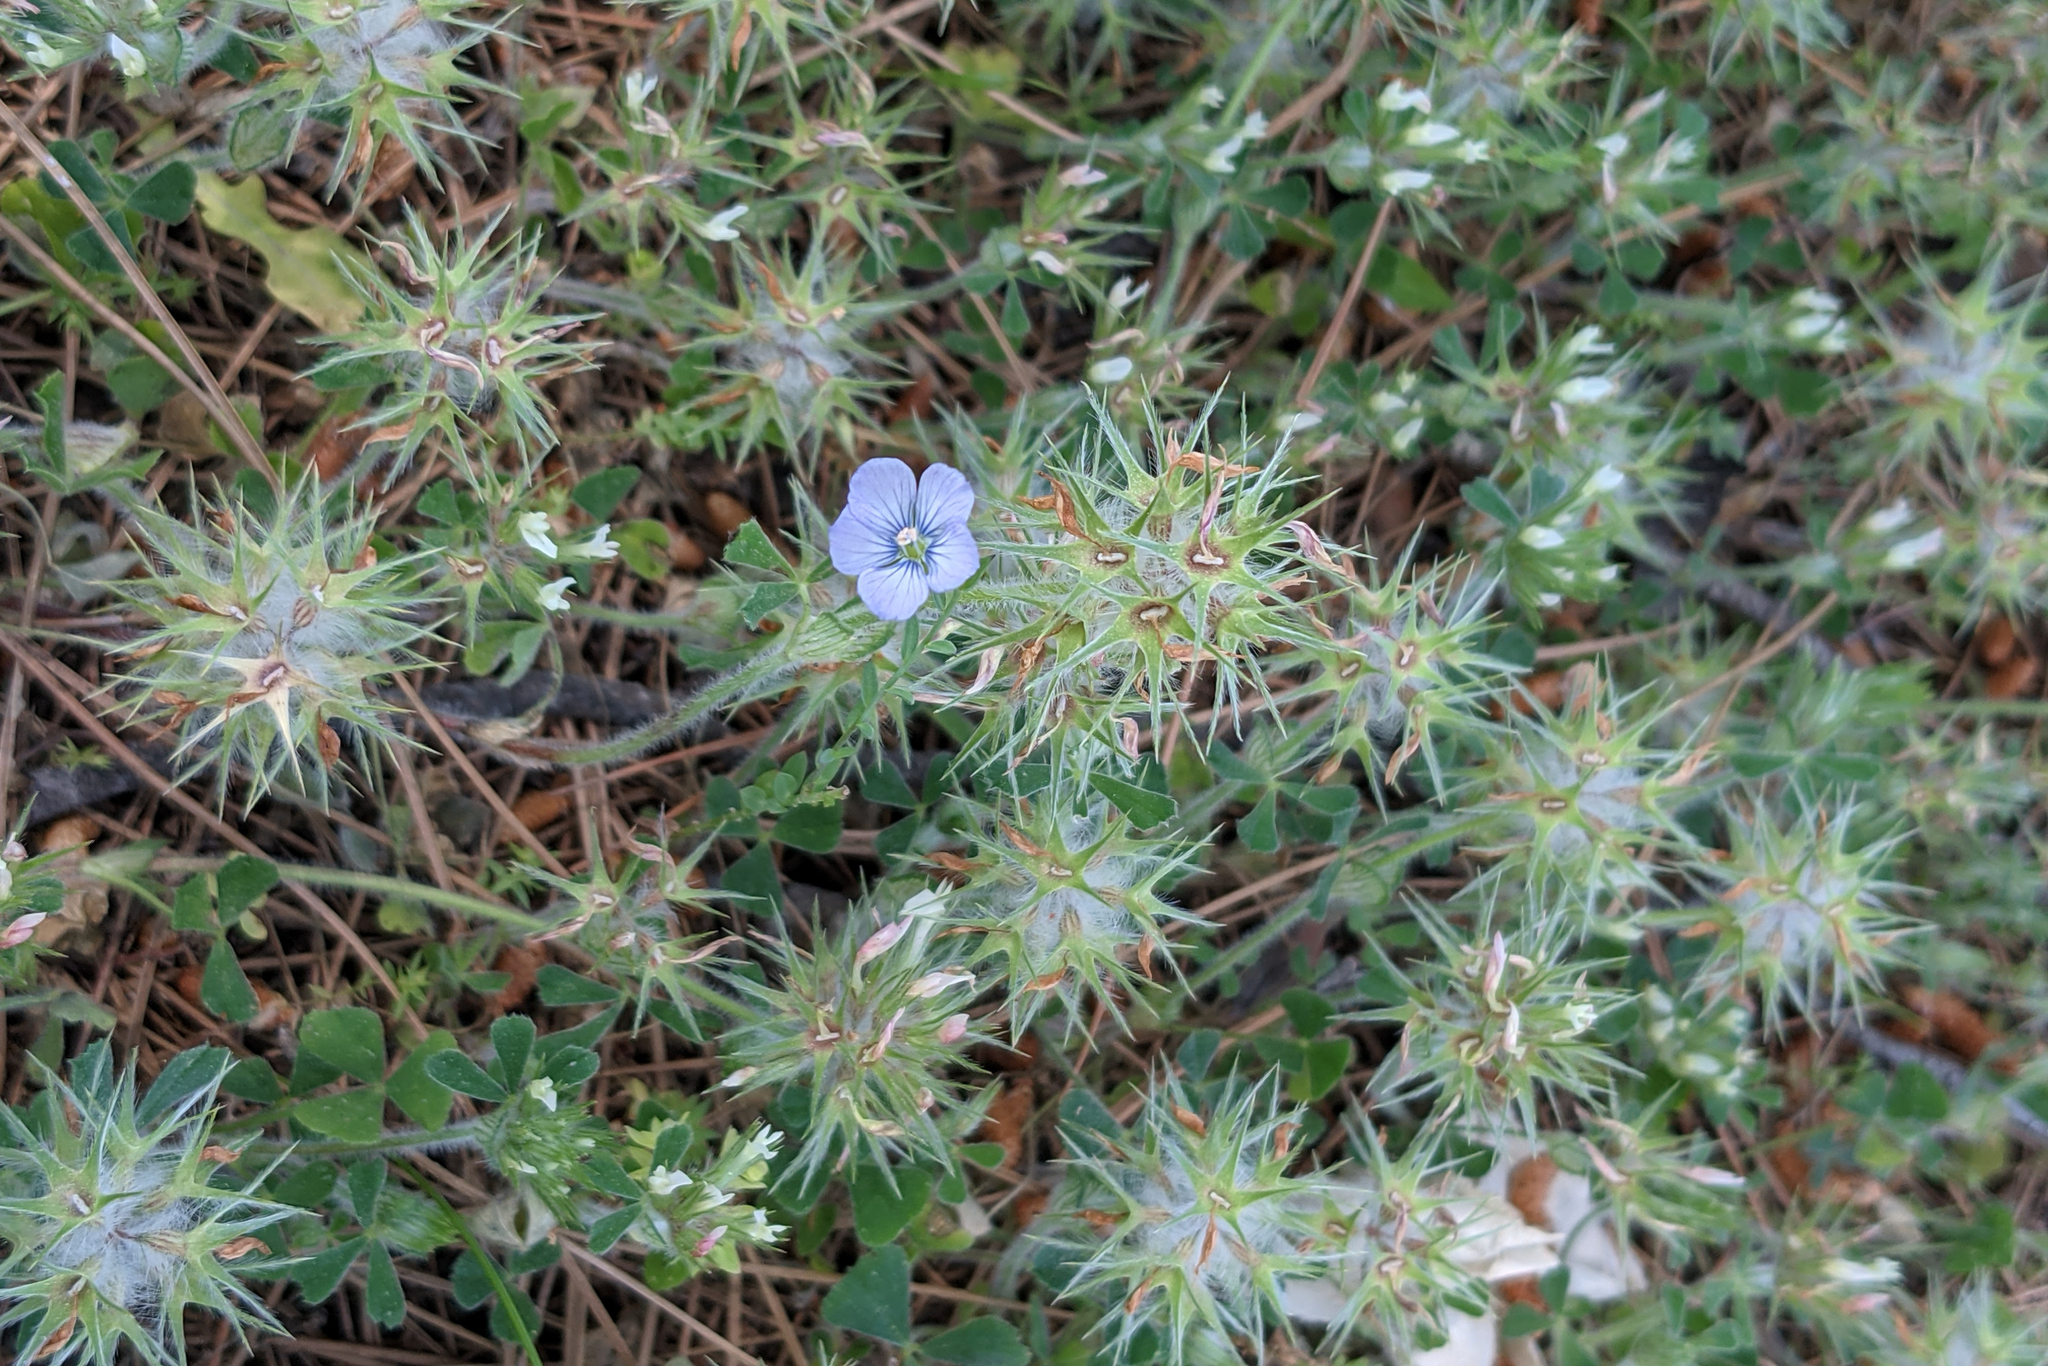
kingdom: Plantae
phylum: Tracheophyta
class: Magnoliopsida
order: Fabales
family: Fabaceae
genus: Trifolium
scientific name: Trifolium stellatum
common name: Starry clover
